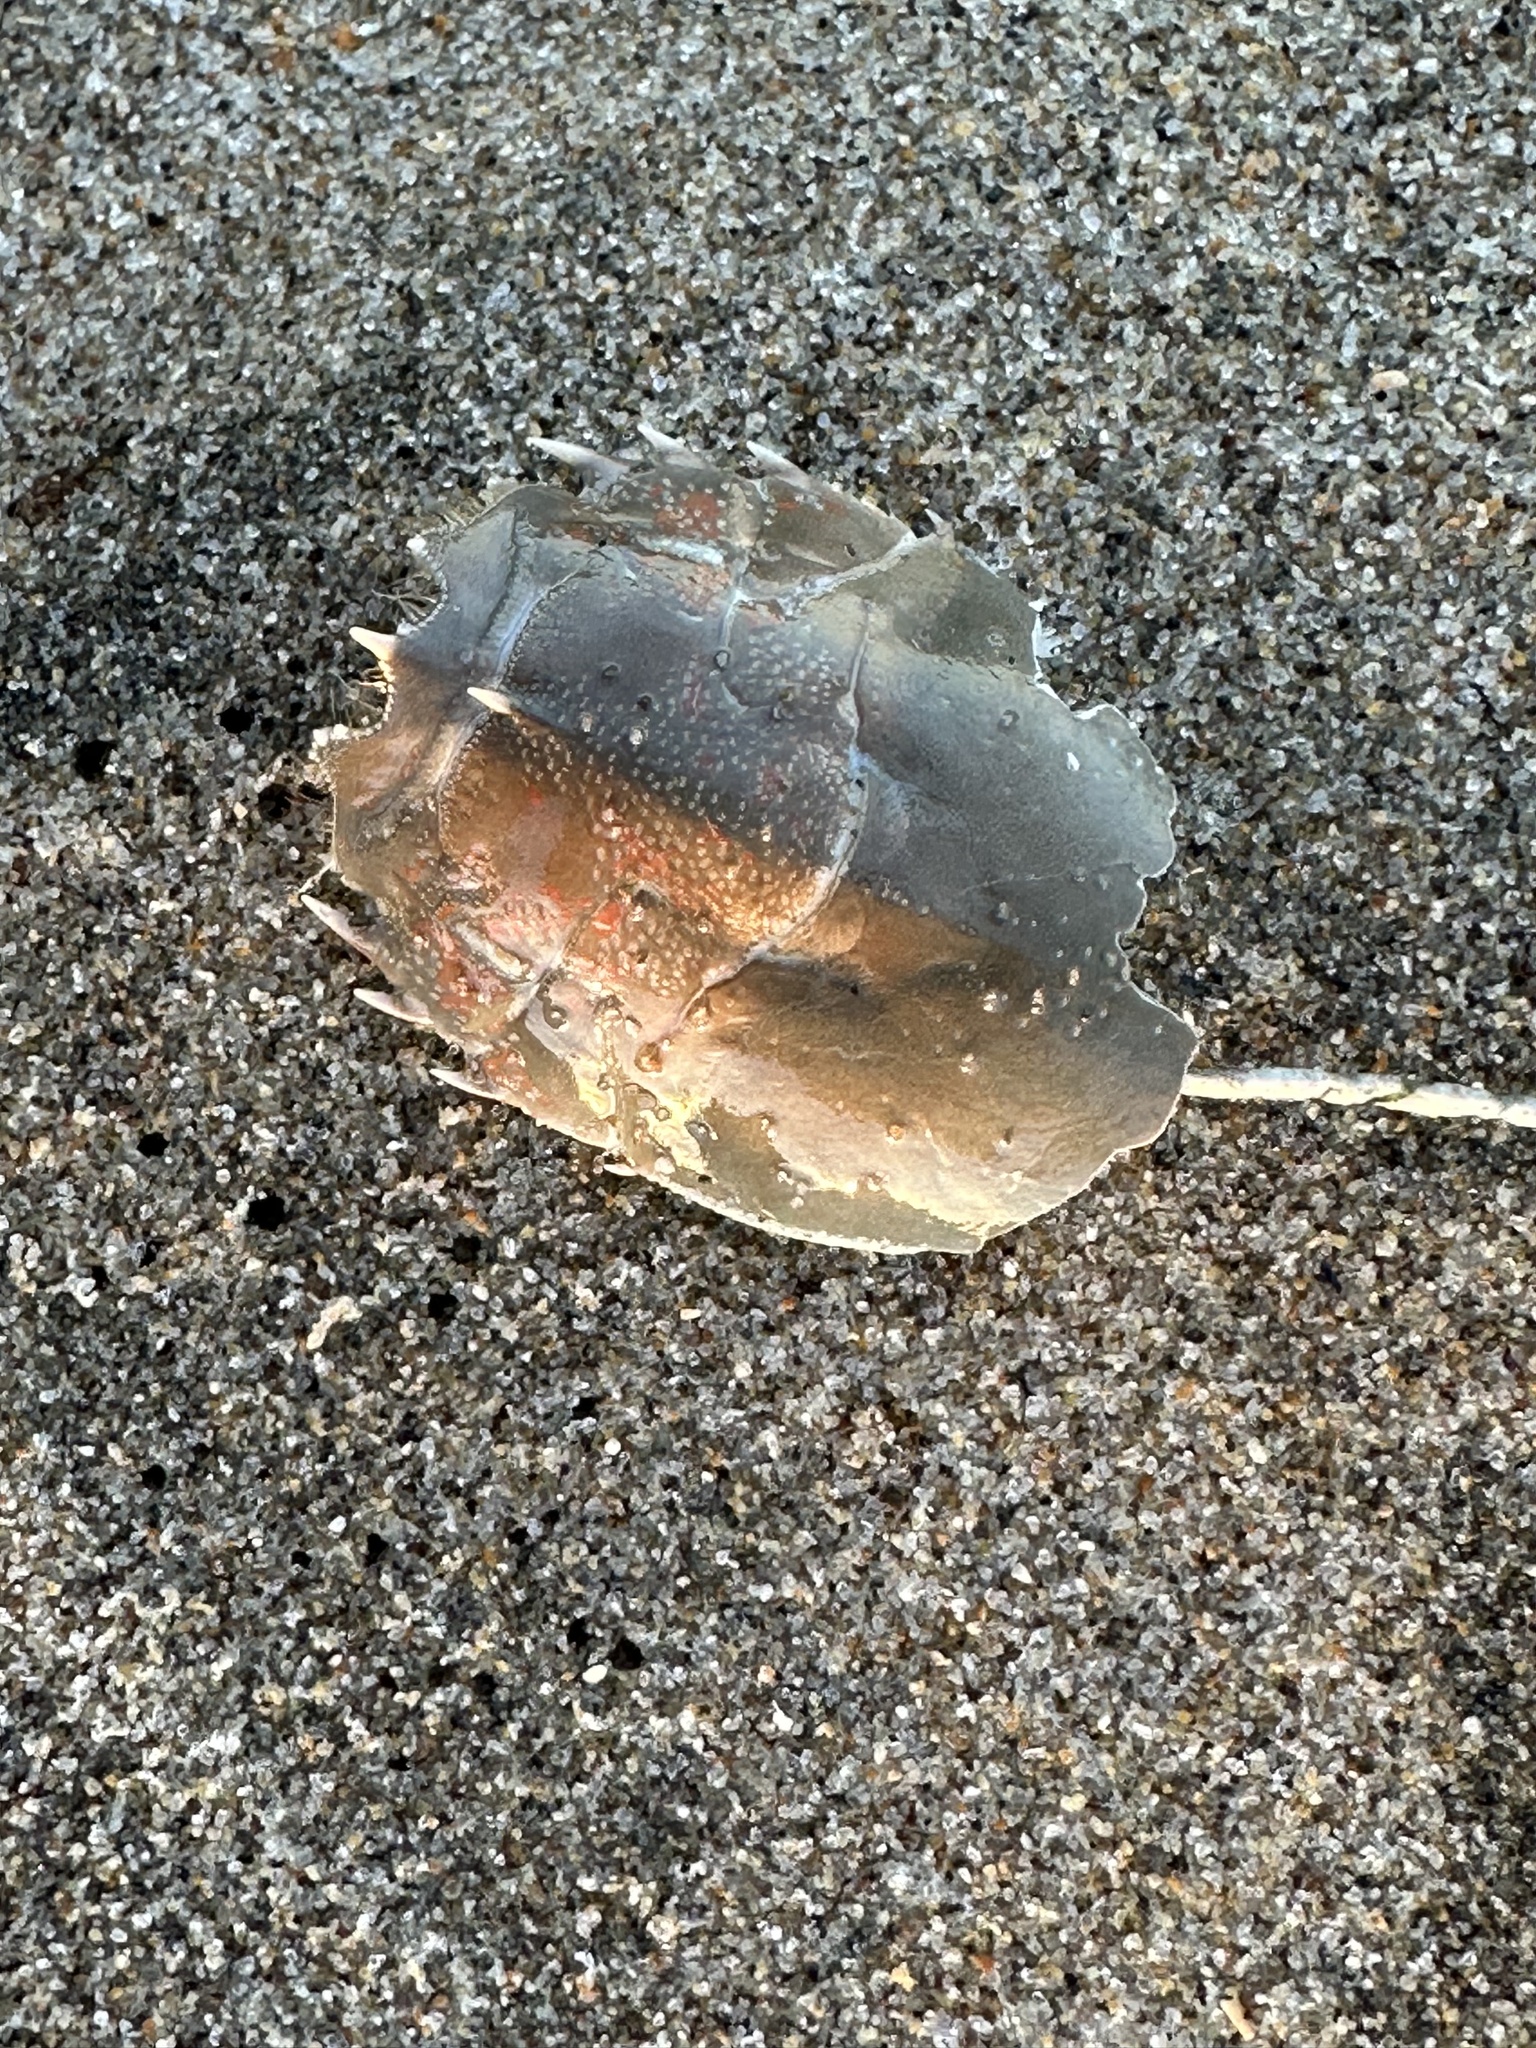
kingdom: Animalia
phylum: Arthropoda
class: Malacostraca
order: Decapoda
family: Blepharipodidae
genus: Blepharipoda
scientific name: Blepharipoda occidentalis
